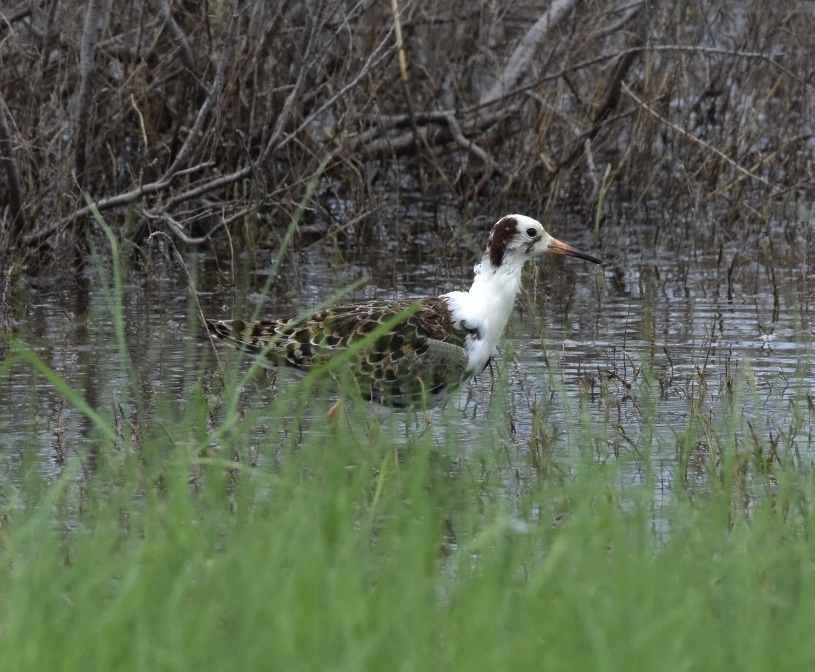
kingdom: Animalia
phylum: Chordata
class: Aves
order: Charadriiformes
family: Scolopacidae
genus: Calidris
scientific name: Calidris pugnax
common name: Ruff
